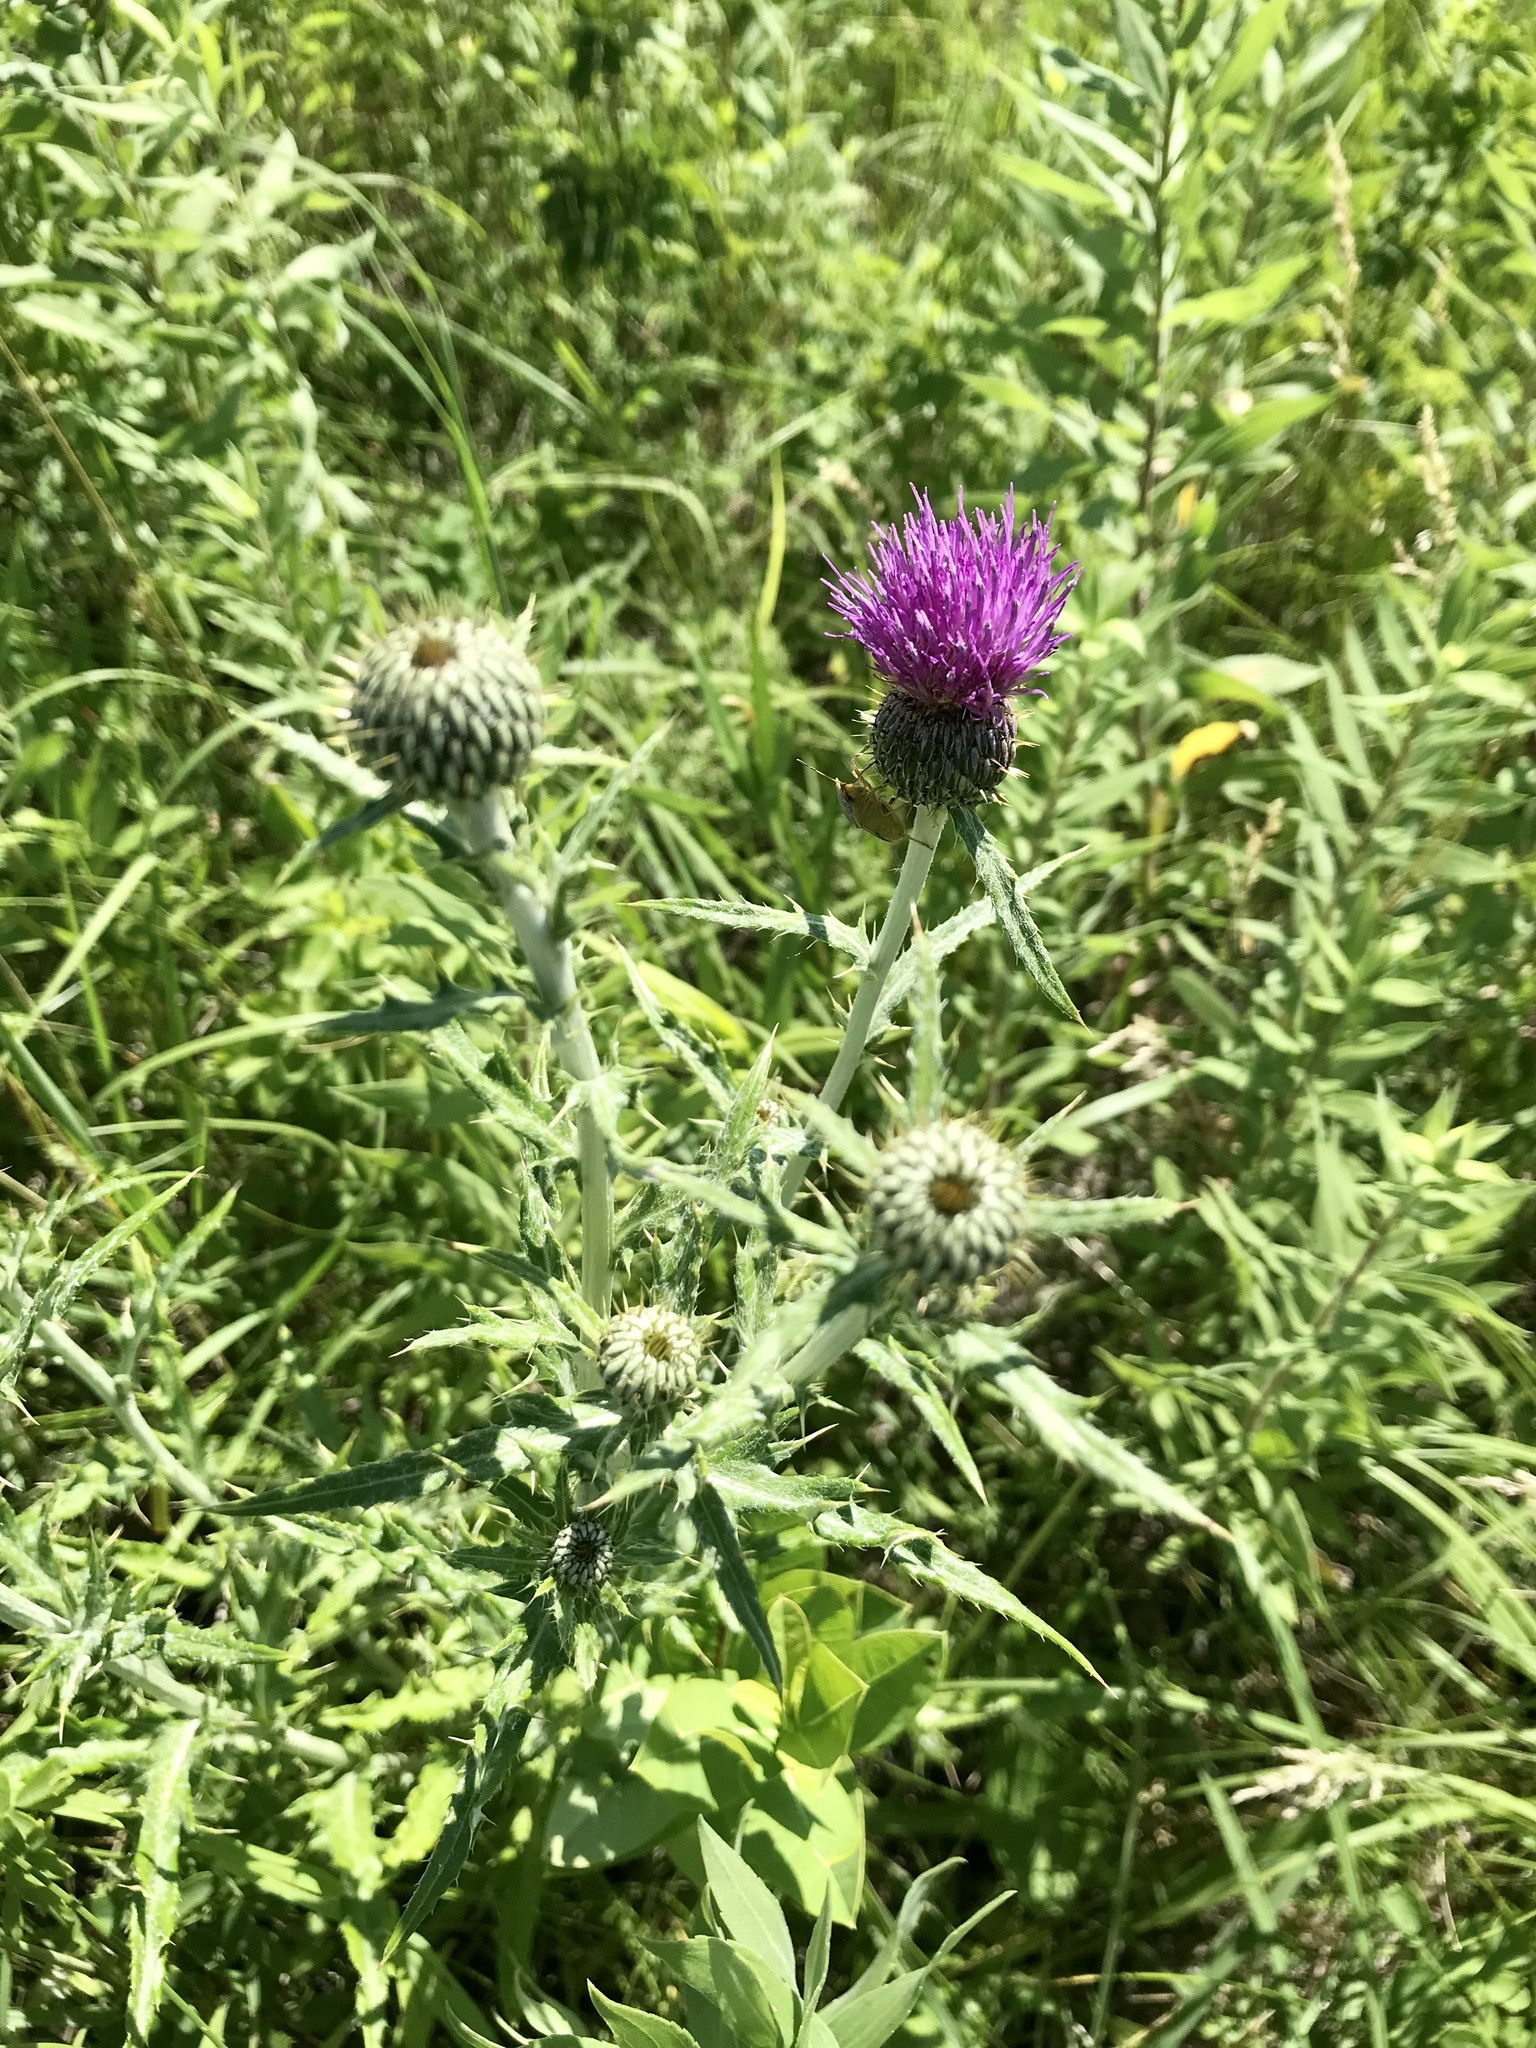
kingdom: Plantae
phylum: Tracheophyta
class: Magnoliopsida
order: Asterales
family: Asteraceae
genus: Cirsium
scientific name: Cirsium flodmanii
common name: Flodman's thistle
